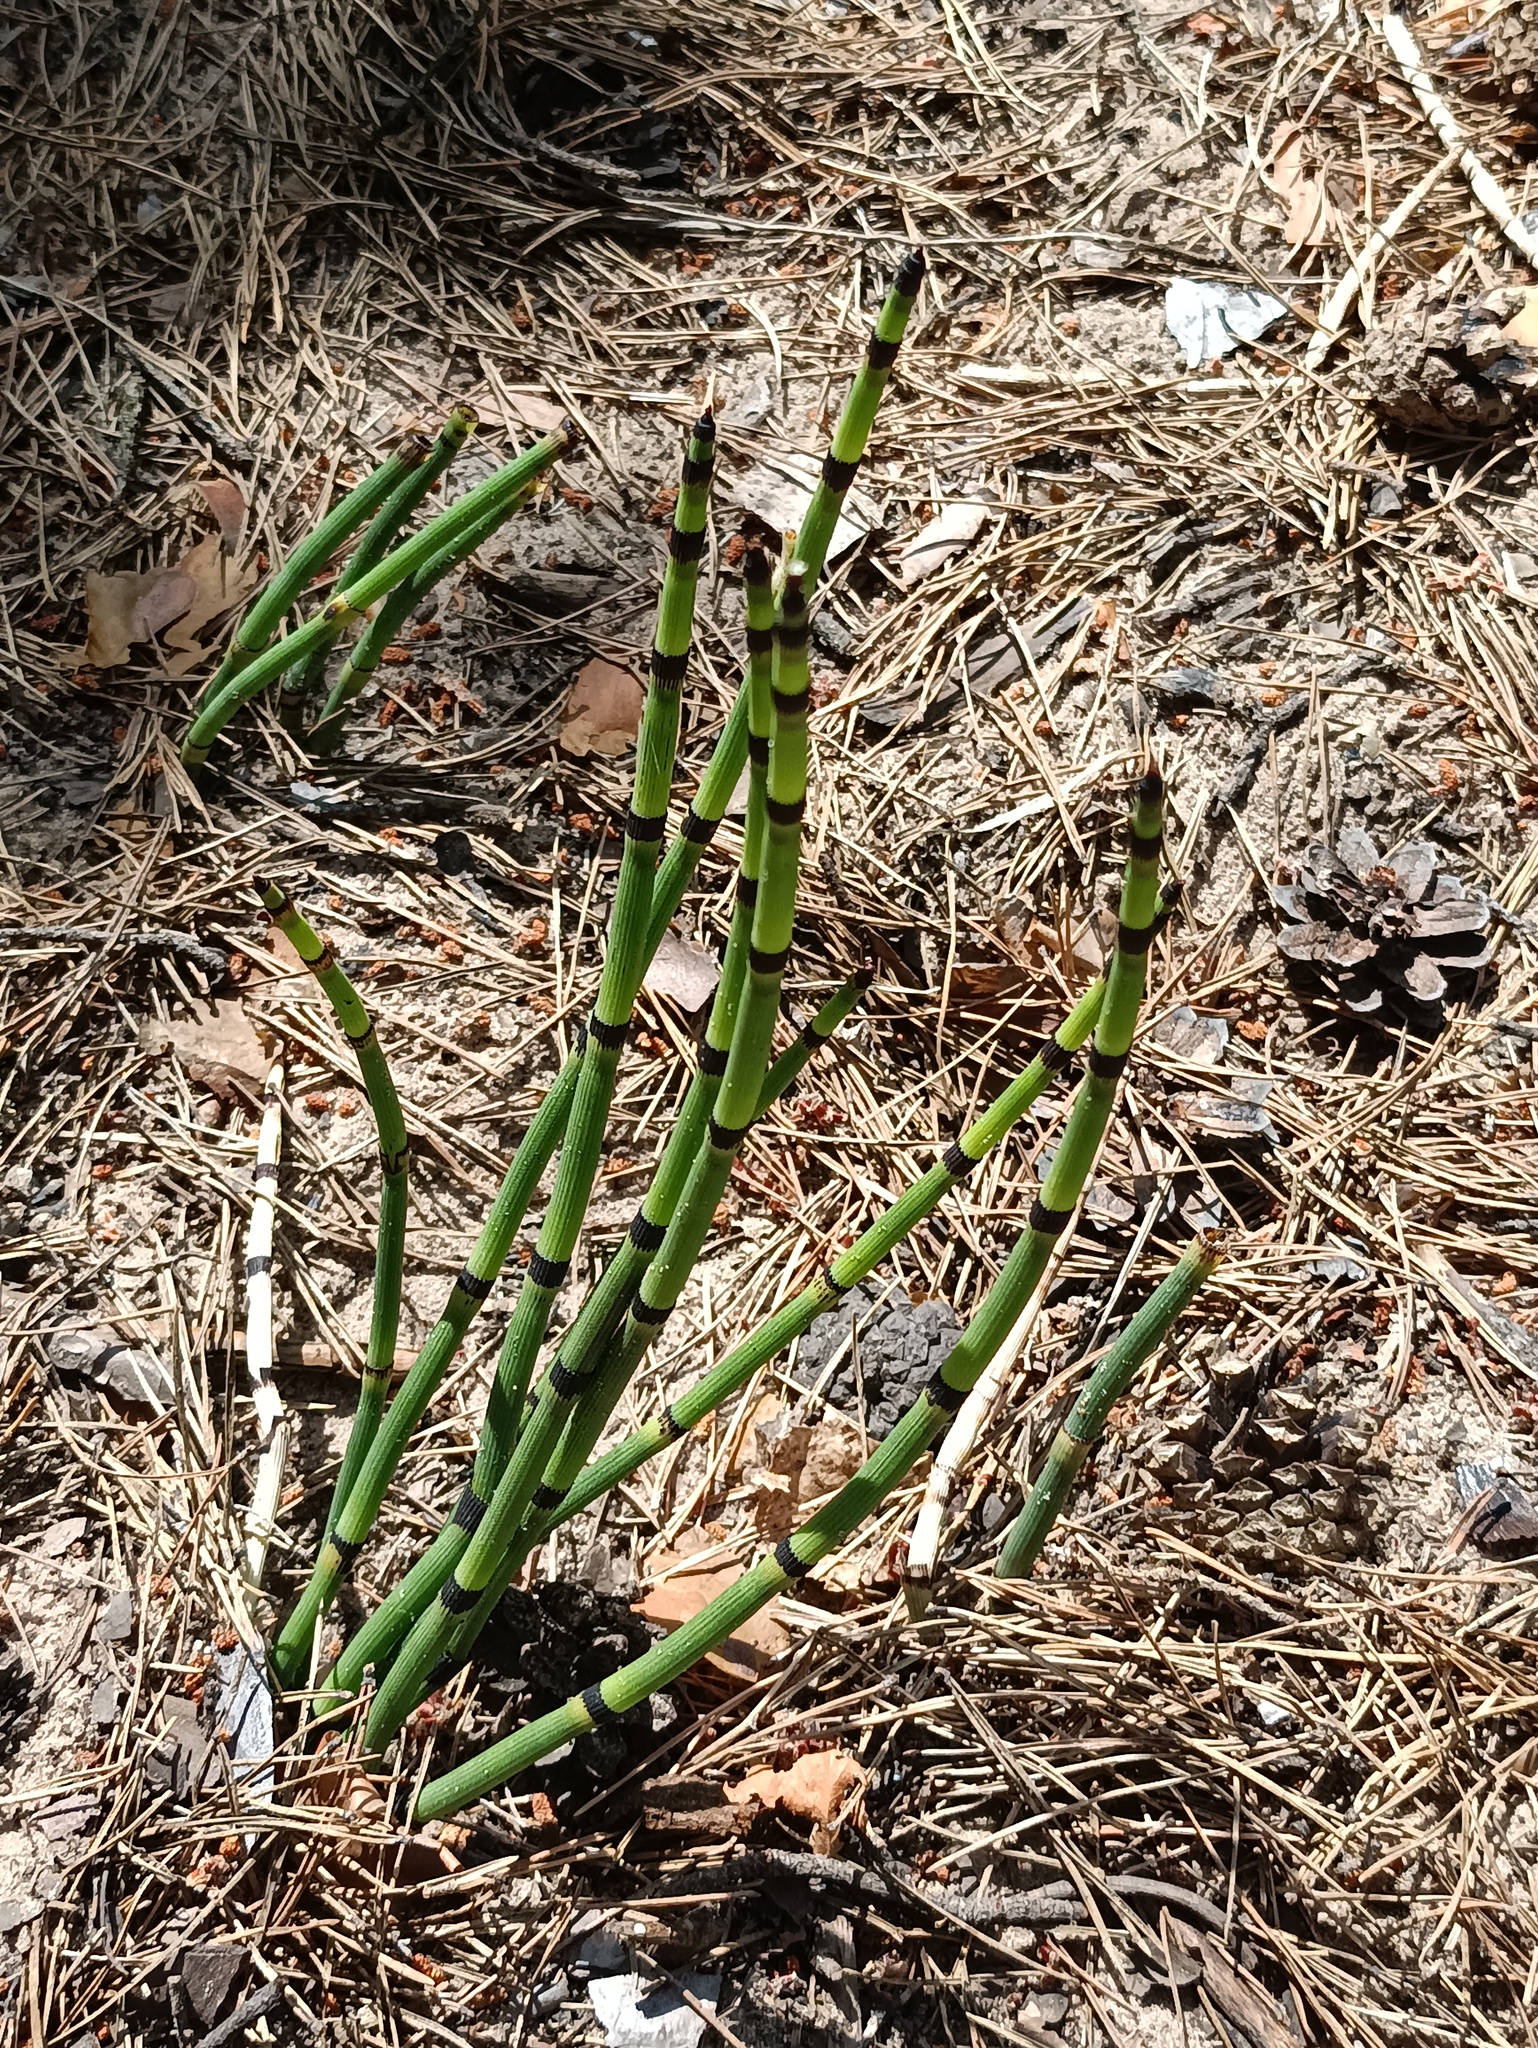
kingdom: Plantae
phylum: Tracheophyta
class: Polypodiopsida
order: Equisetales
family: Equisetaceae
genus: Equisetum
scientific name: Equisetum hyemale
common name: Rough horsetail
